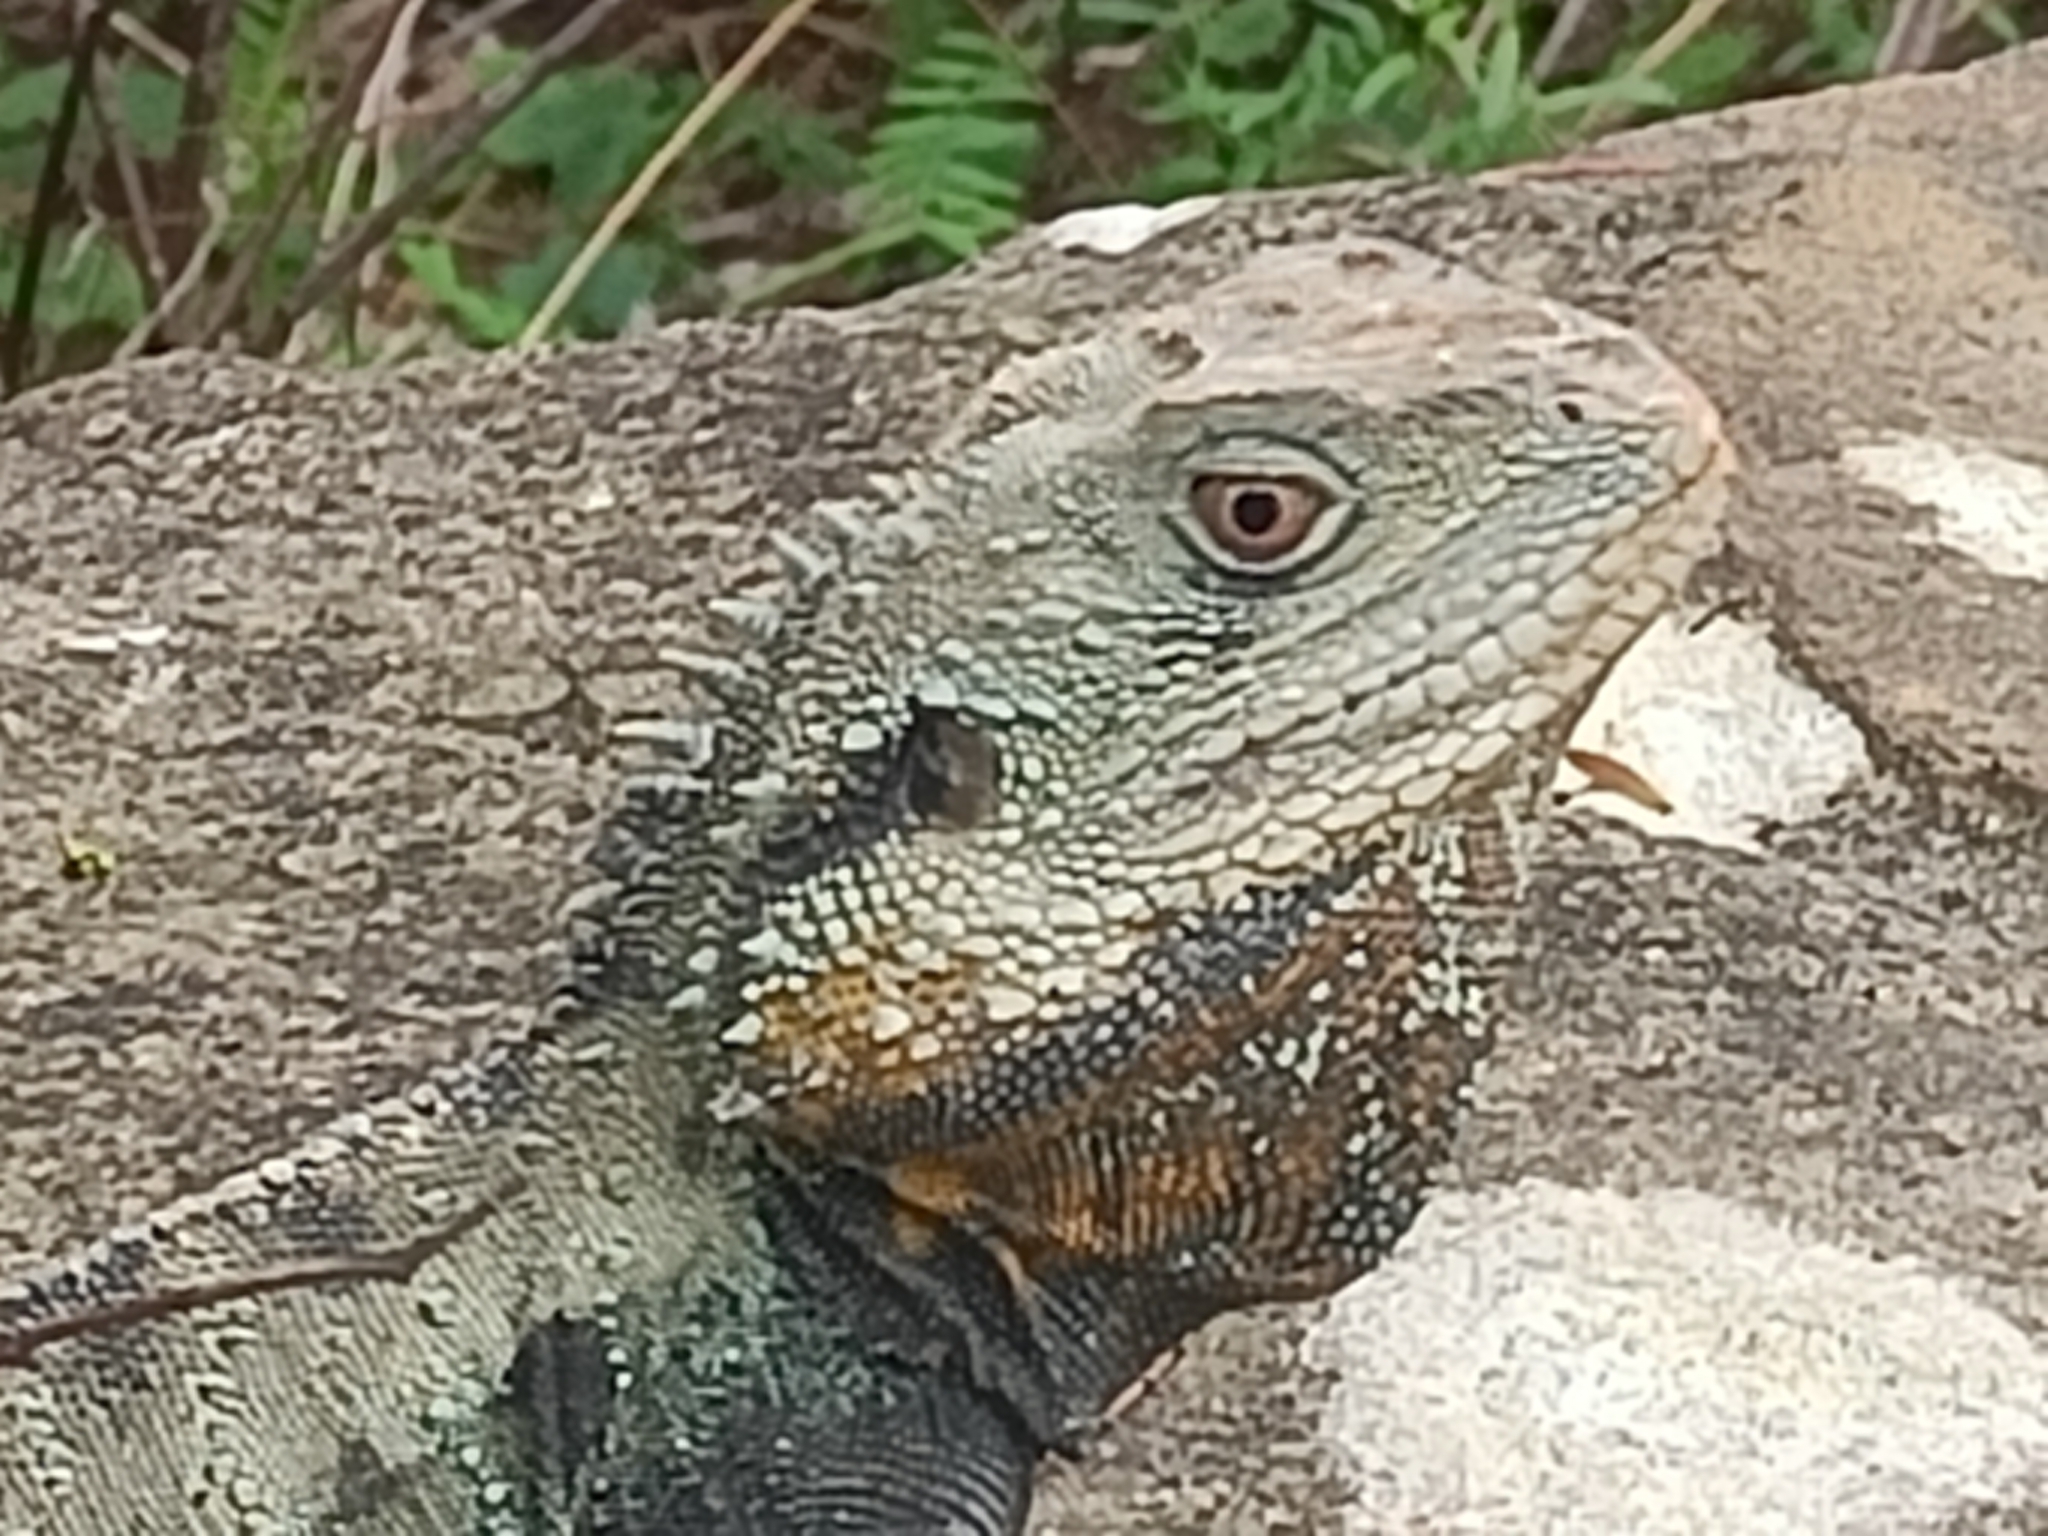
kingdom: Animalia
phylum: Chordata
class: Squamata
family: Agamidae
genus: Intellagama
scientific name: Intellagama lesueurii
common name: Eastern water dragon
